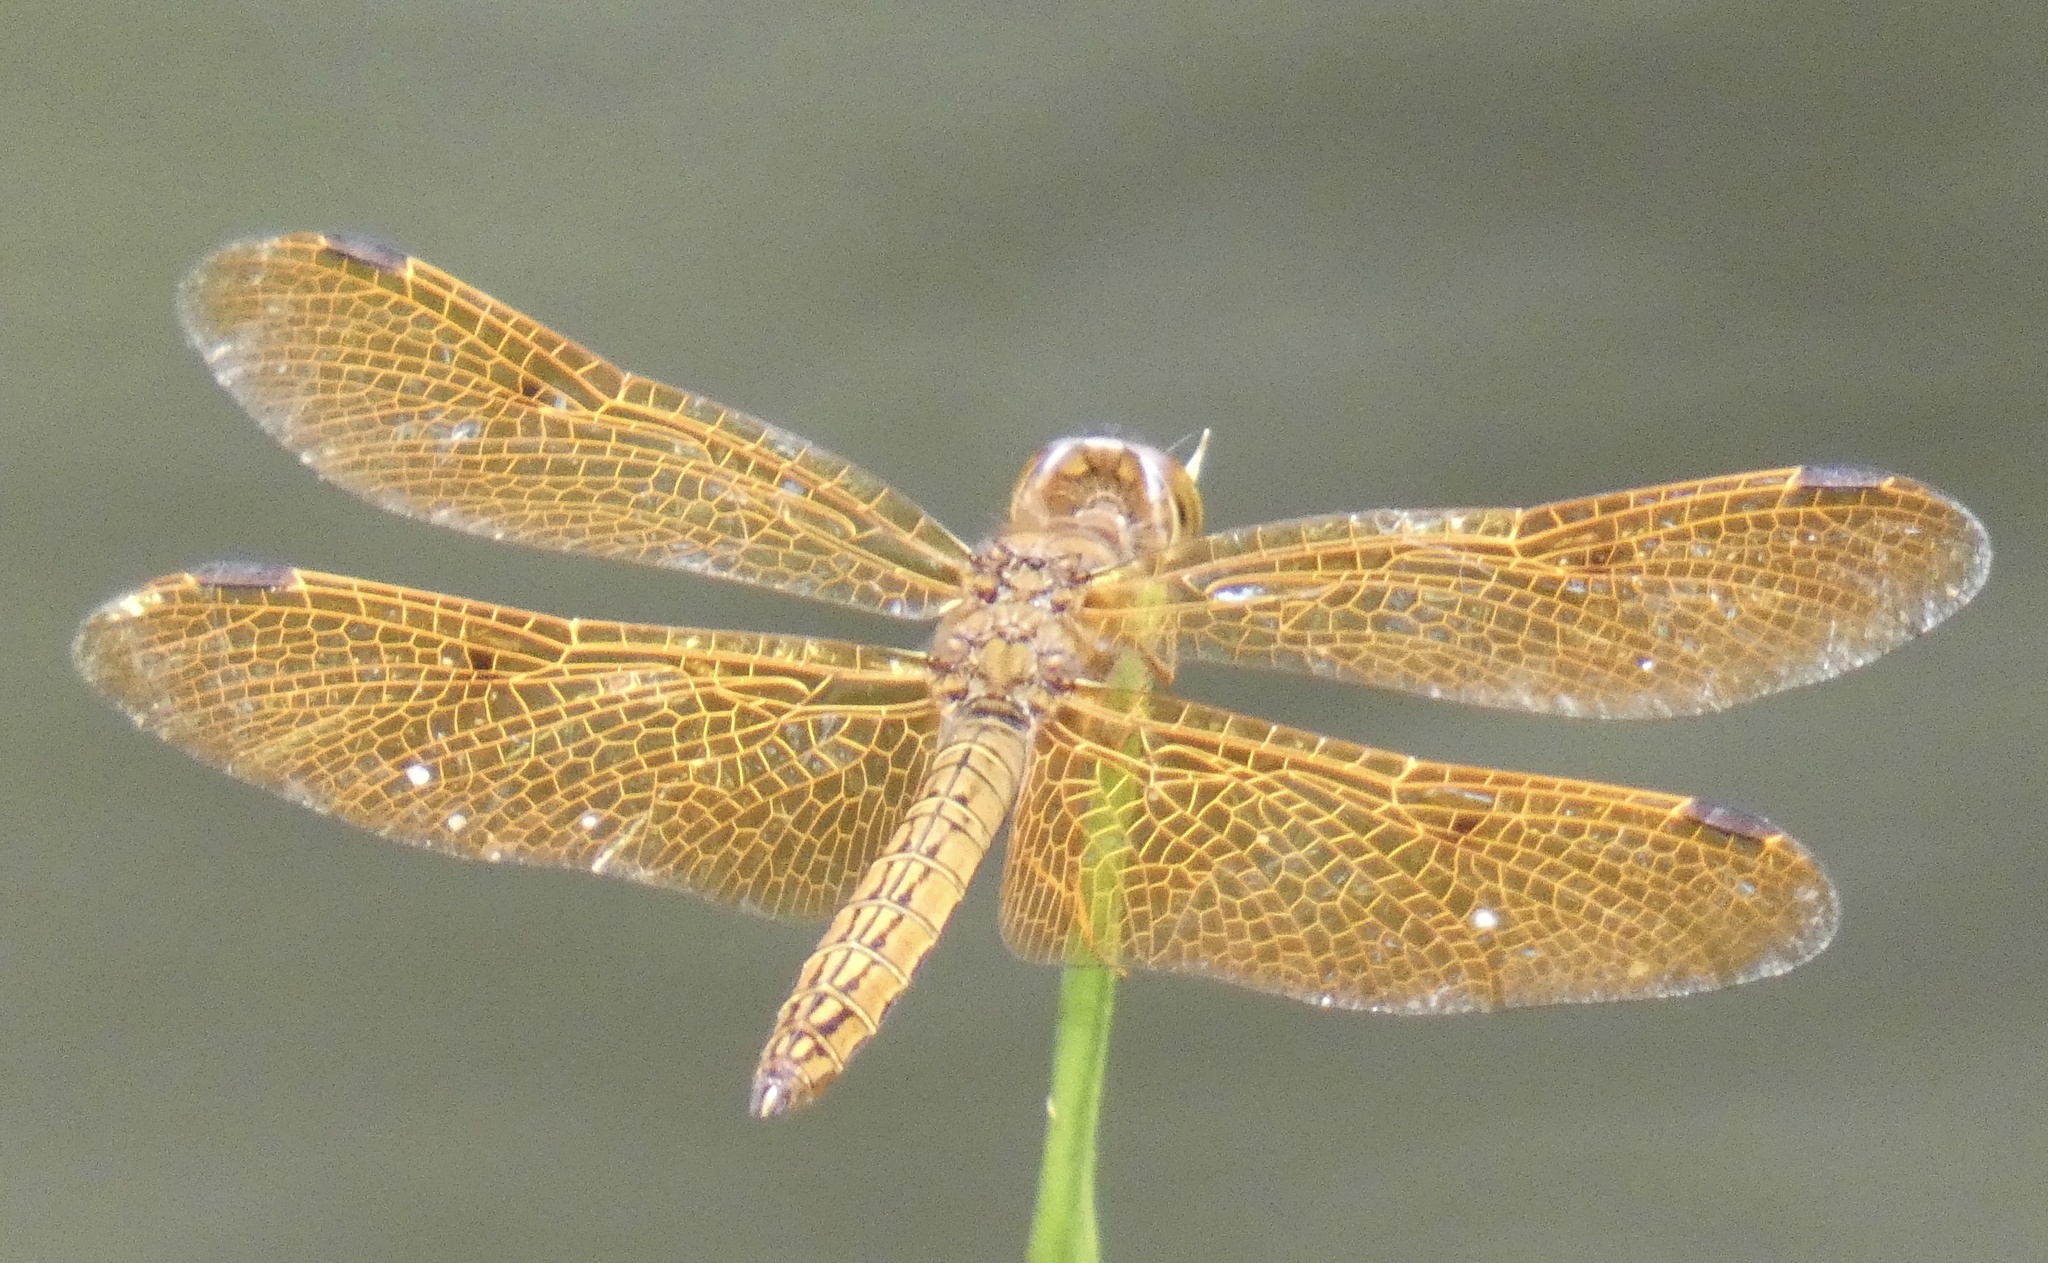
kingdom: Animalia
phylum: Arthropoda
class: Insecta
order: Odonata
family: Libellulidae
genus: Perithemis
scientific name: Perithemis icteroptera
